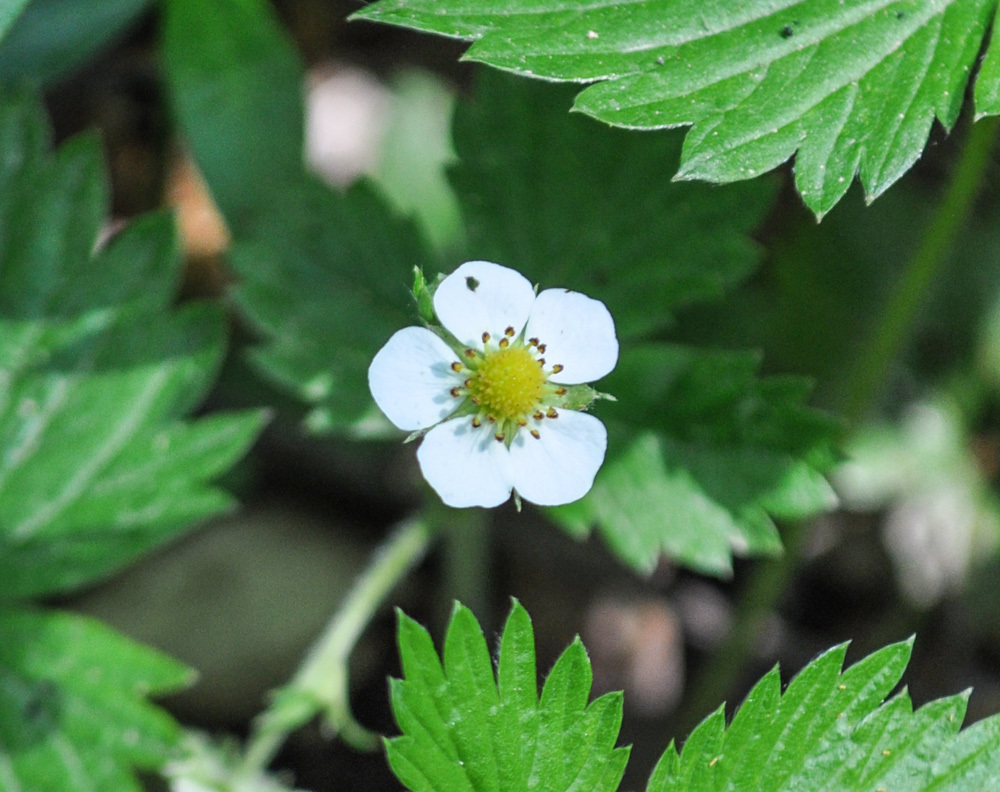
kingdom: Plantae
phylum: Tracheophyta
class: Magnoliopsida
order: Rosales
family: Rosaceae
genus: Fragaria
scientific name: Fragaria vesca
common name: Wild strawberry
